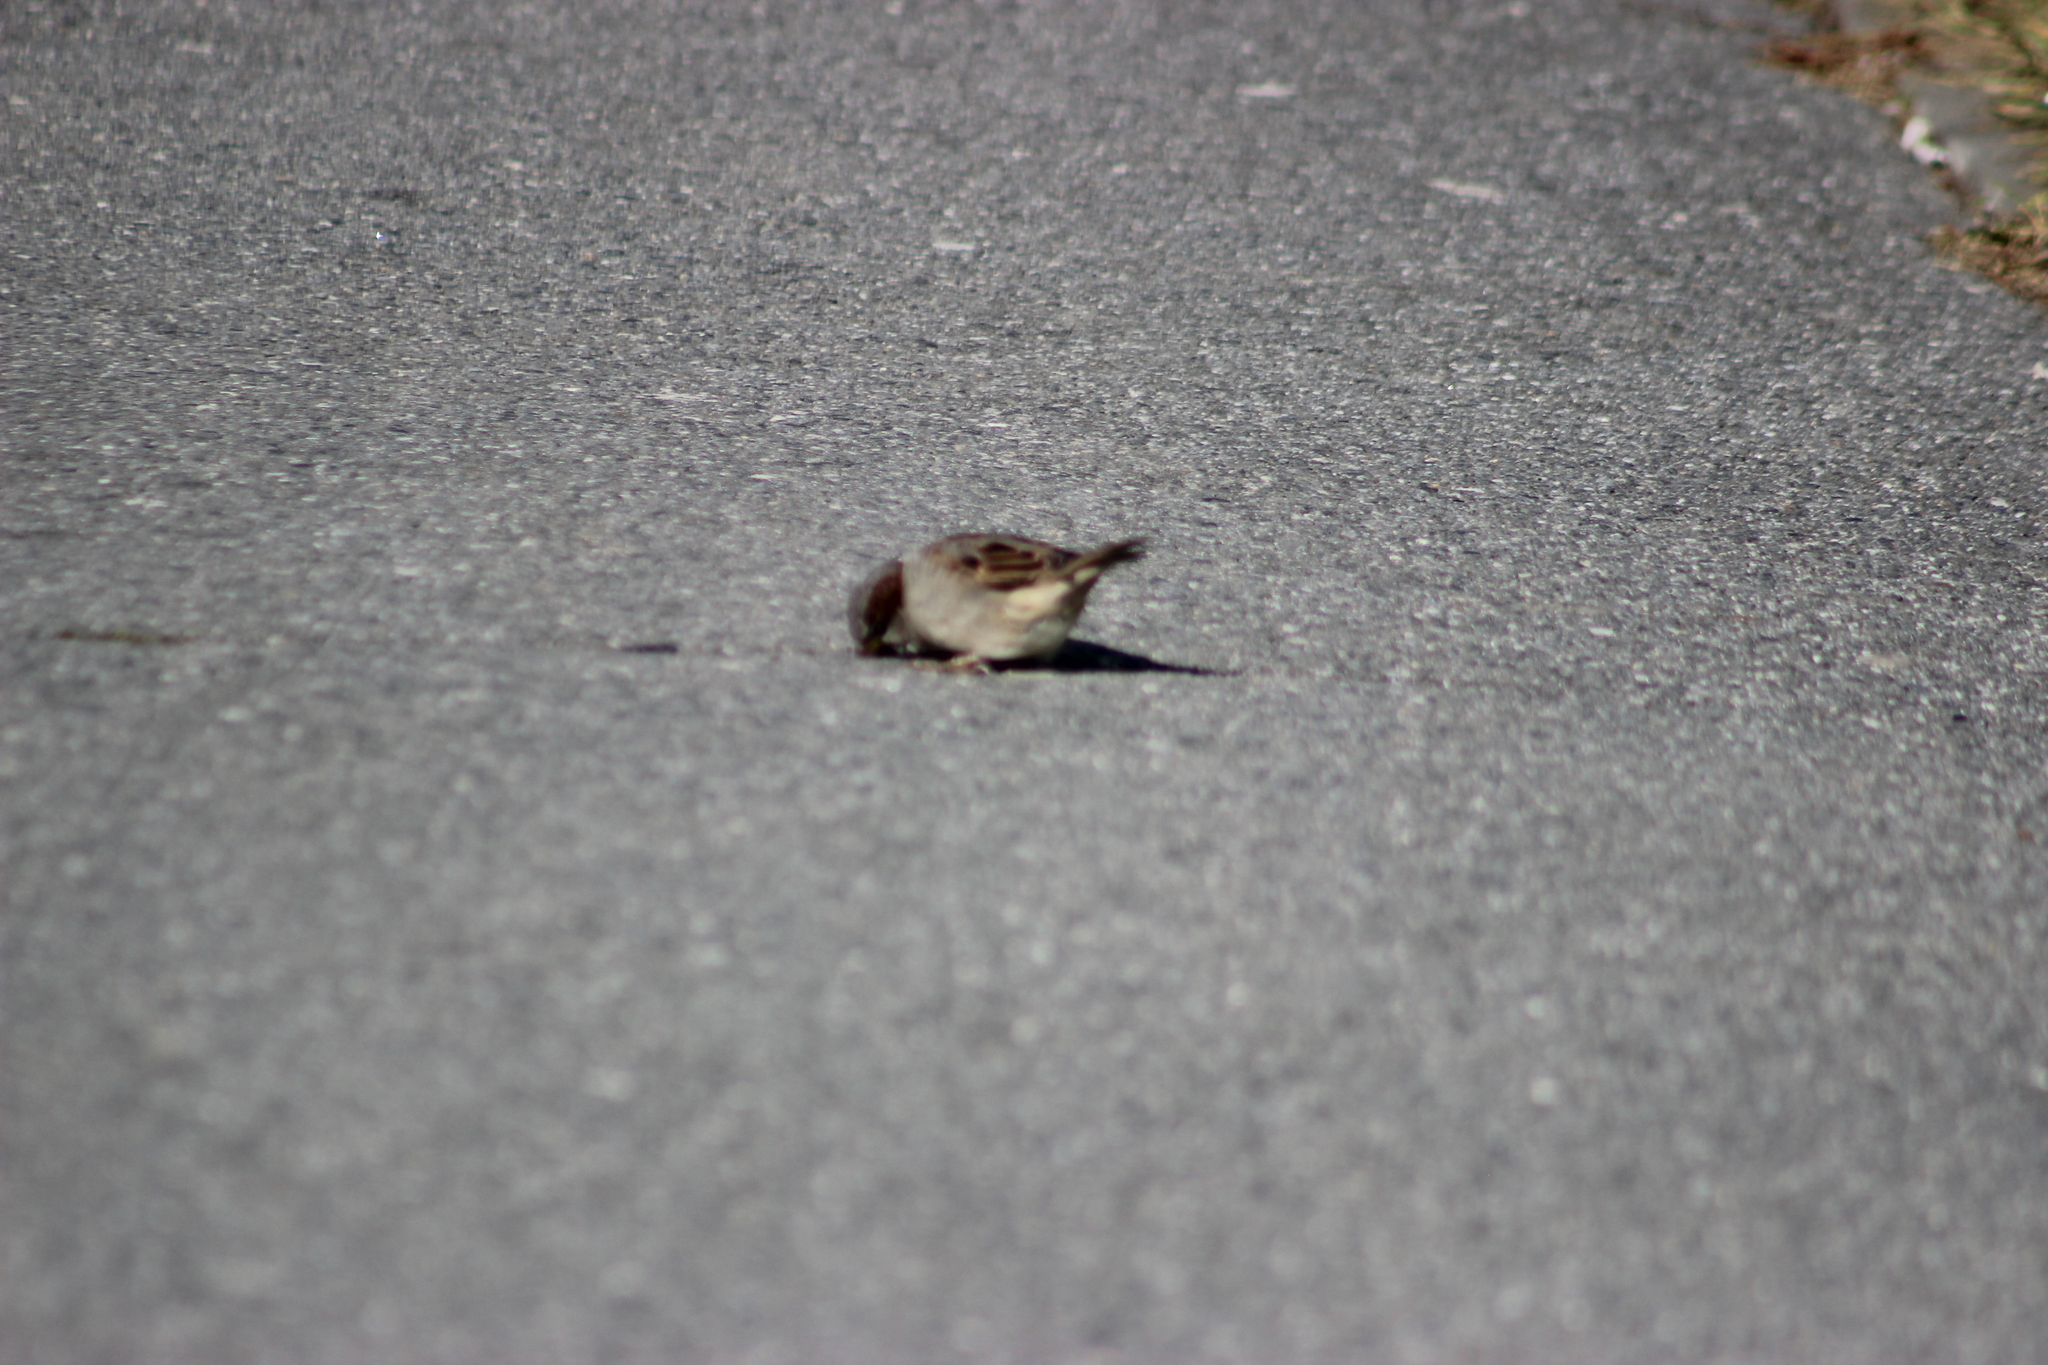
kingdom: Animalia
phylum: Chordata
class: Aves
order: Passeriformes
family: Passeridae
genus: Passer
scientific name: Passer domesticus
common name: House sparrow
